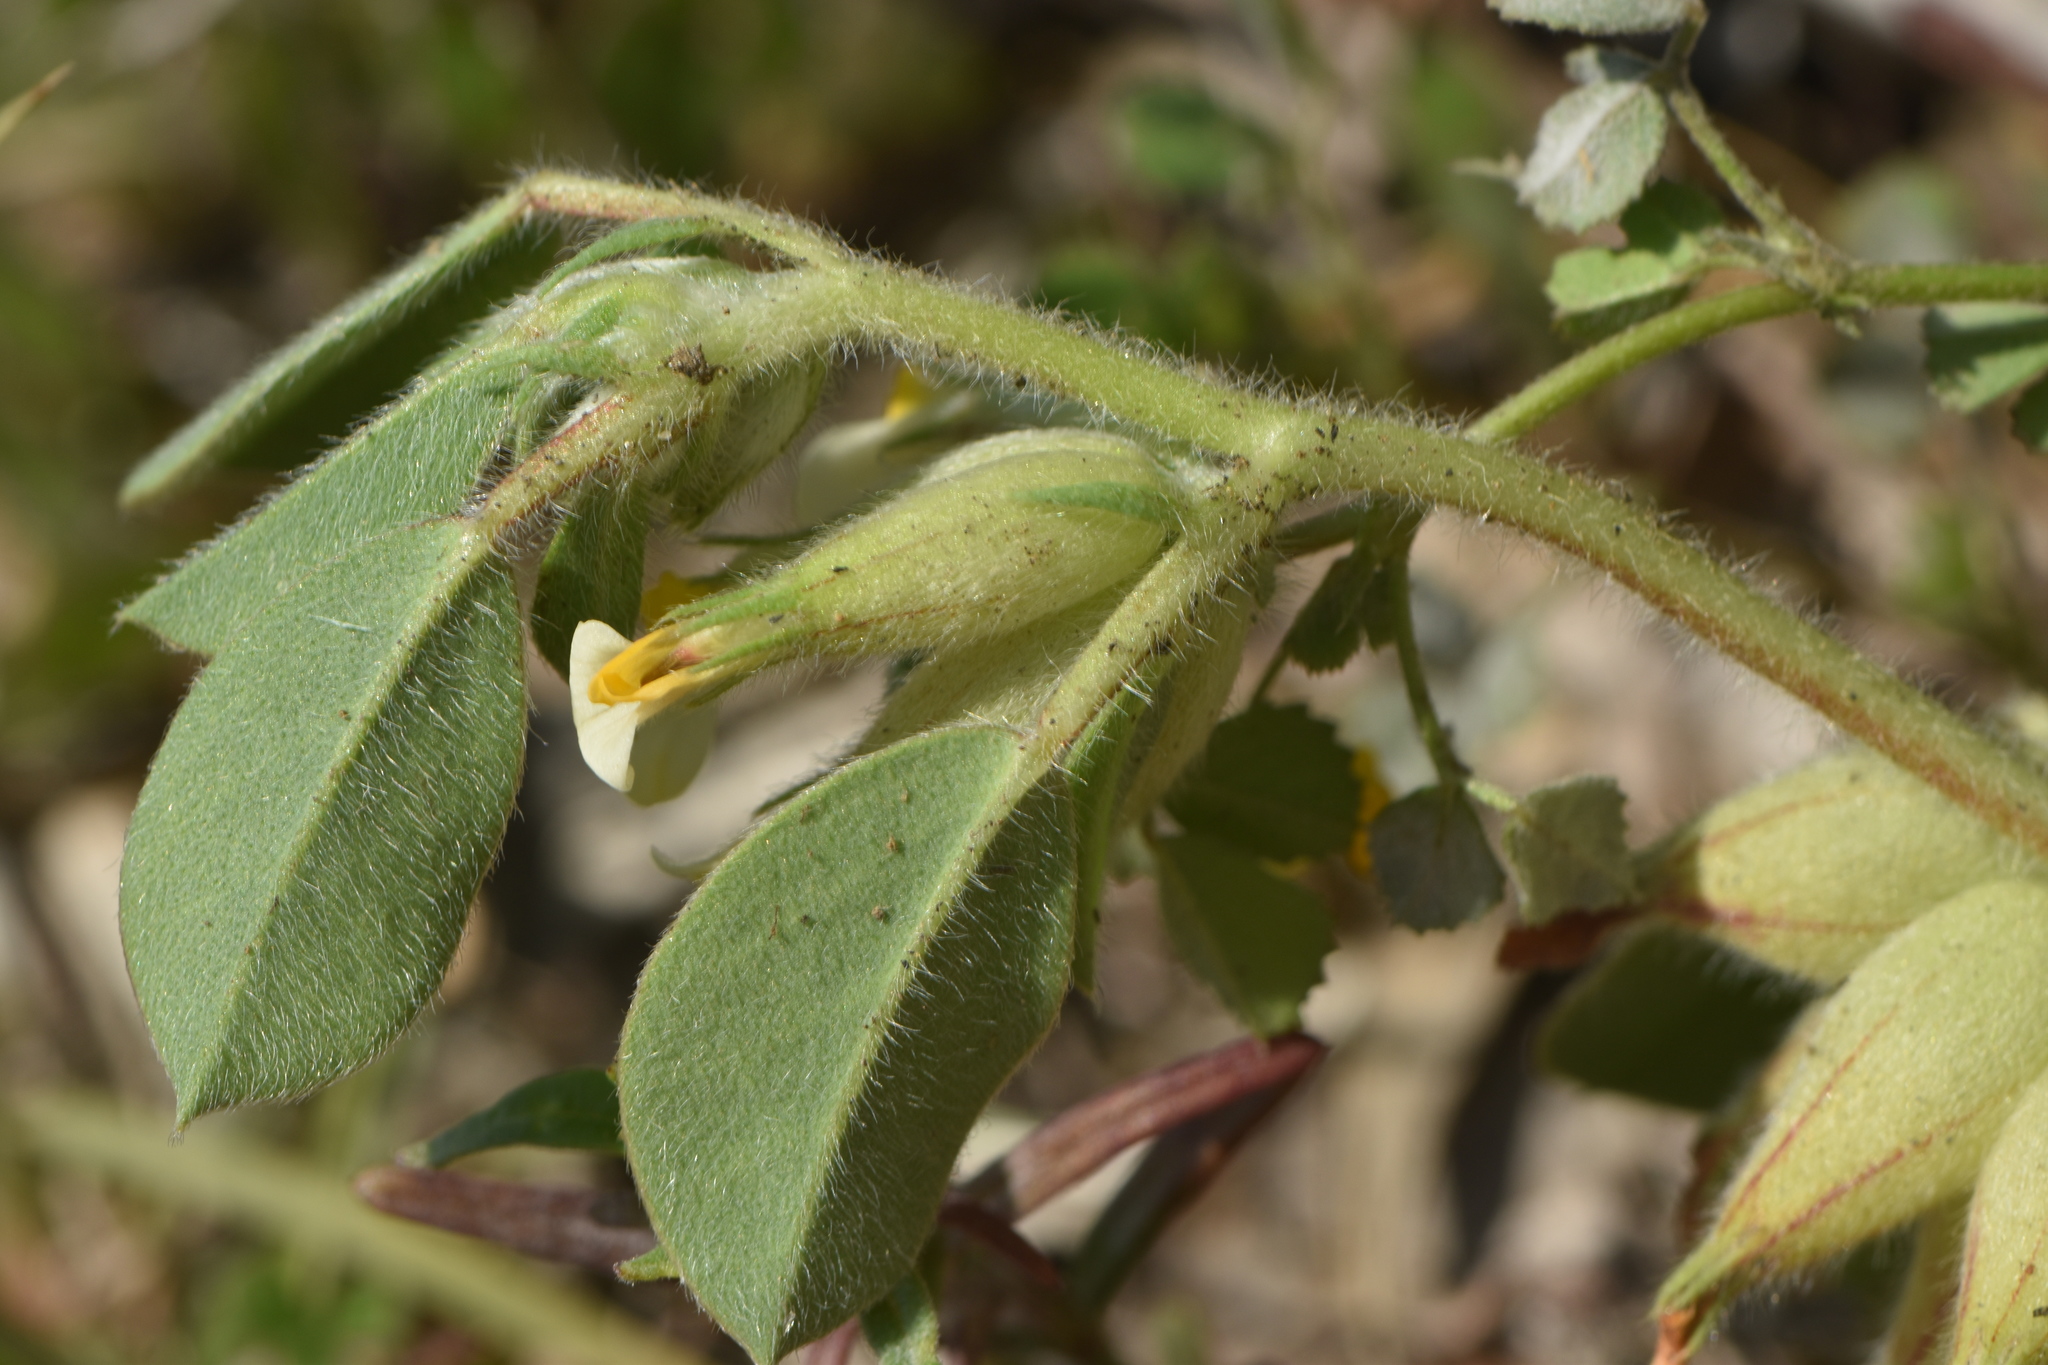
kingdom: Plantae
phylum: Tracheophyta
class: Magnoliopsida
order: Fabales
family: Fabaceae
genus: Tripodion
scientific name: Tripodion tetraphyllum
